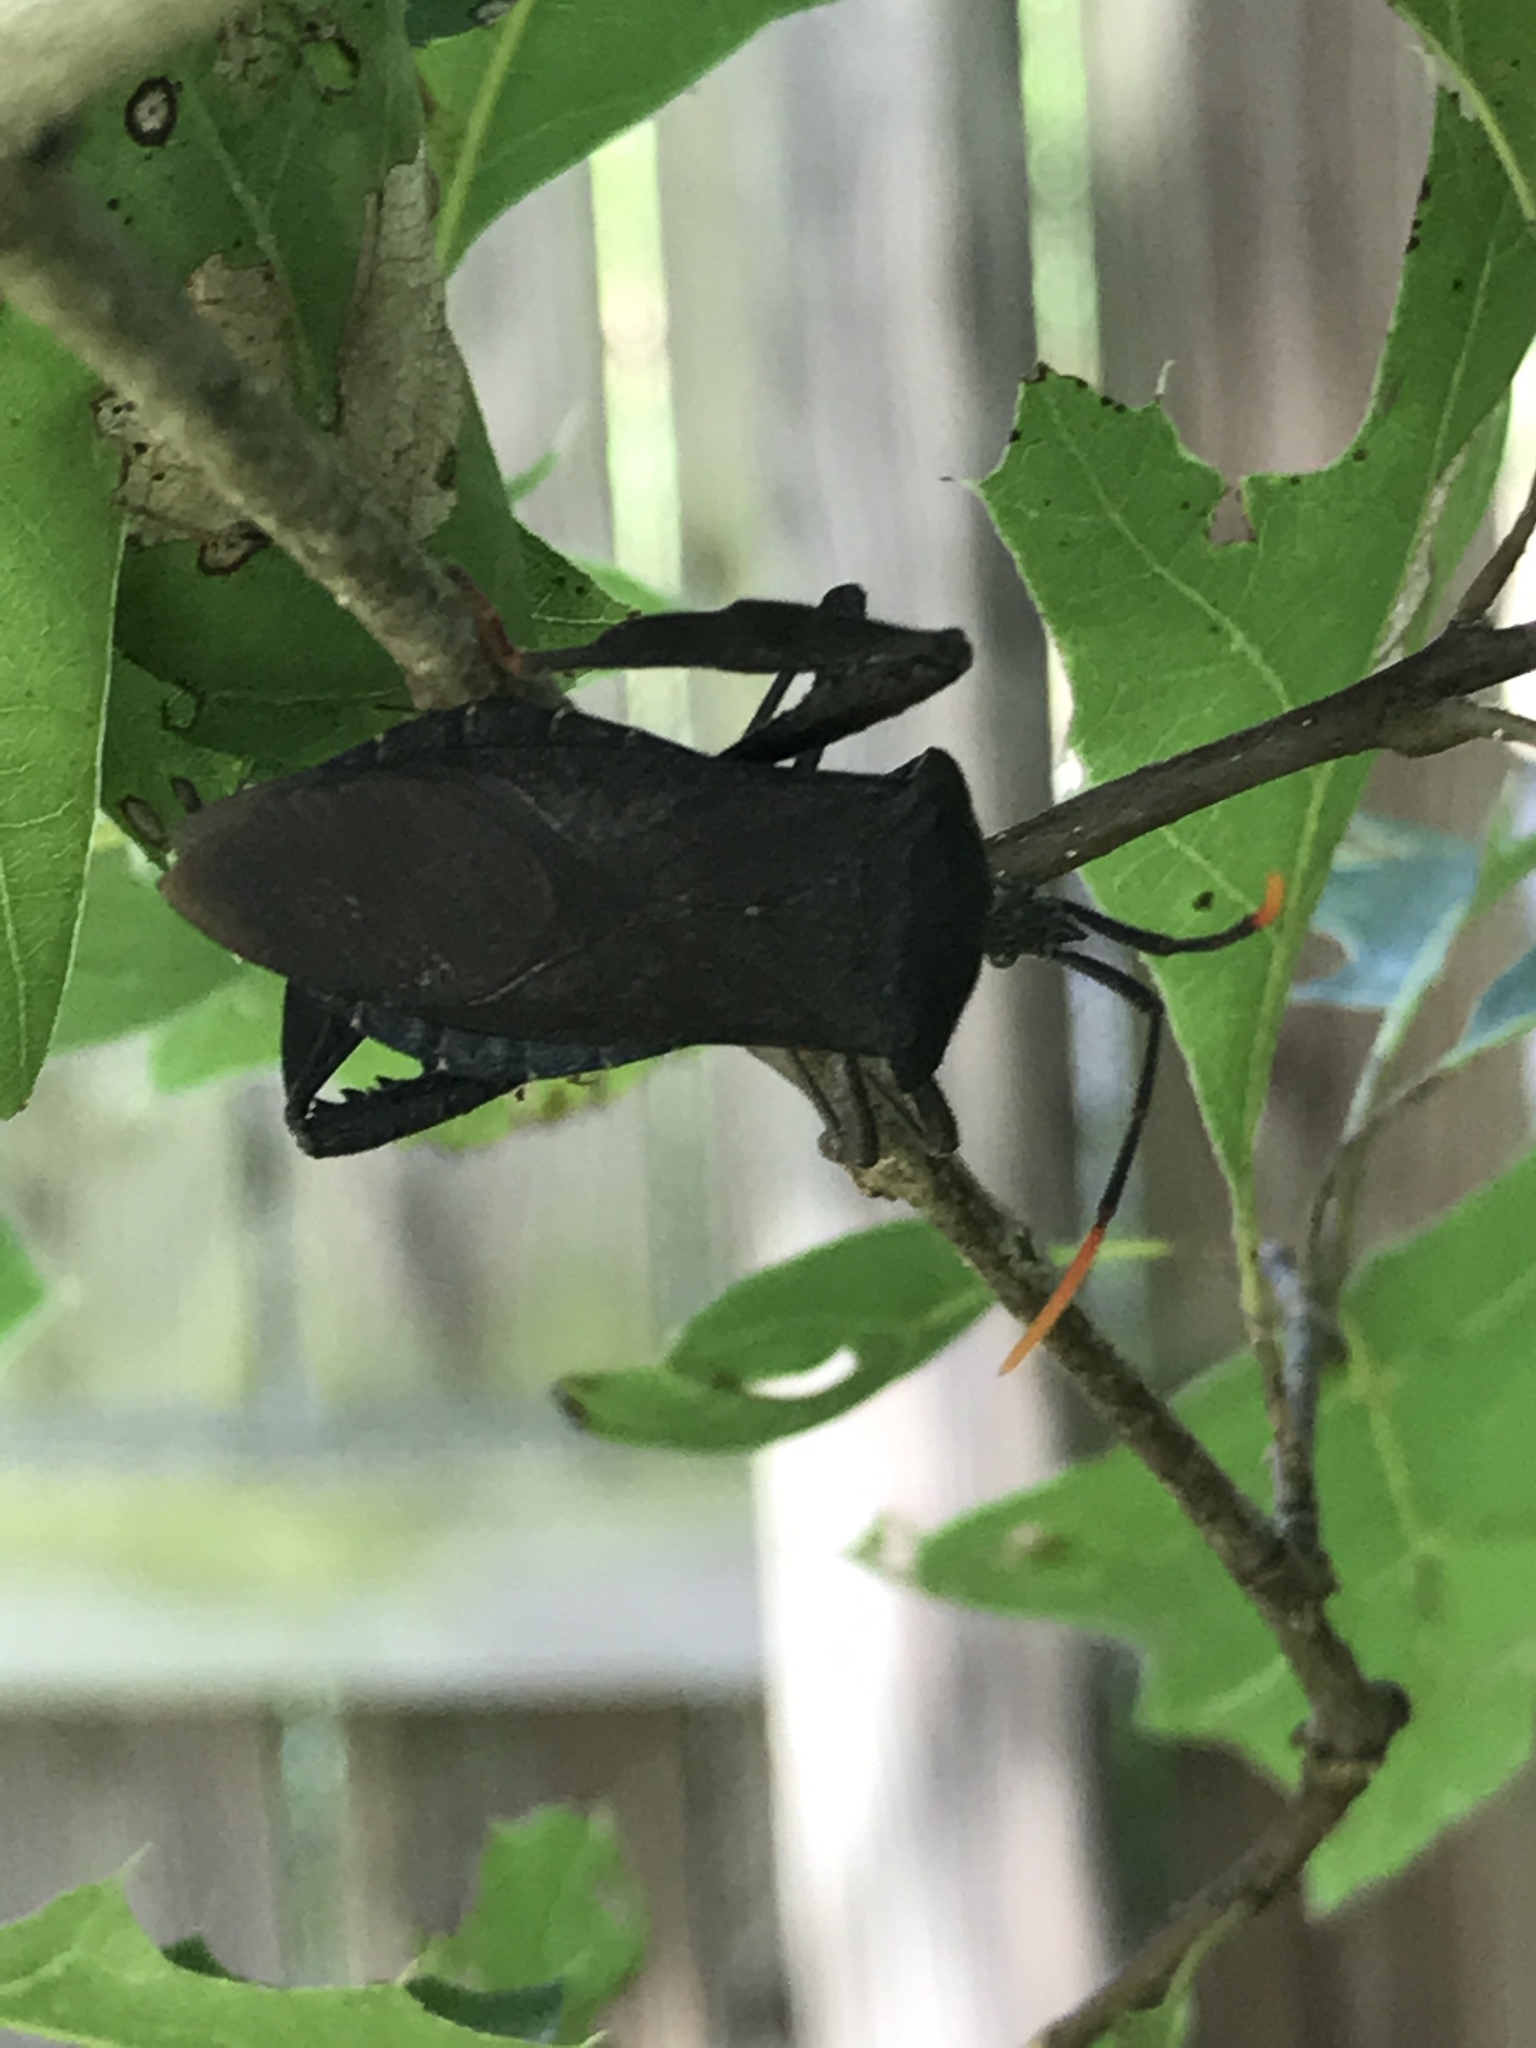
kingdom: Animalia
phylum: Arthropoda
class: Insecta
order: Hemiptera
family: Coreidae
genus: Acanthocephala
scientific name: Acanthocephala terminalis
